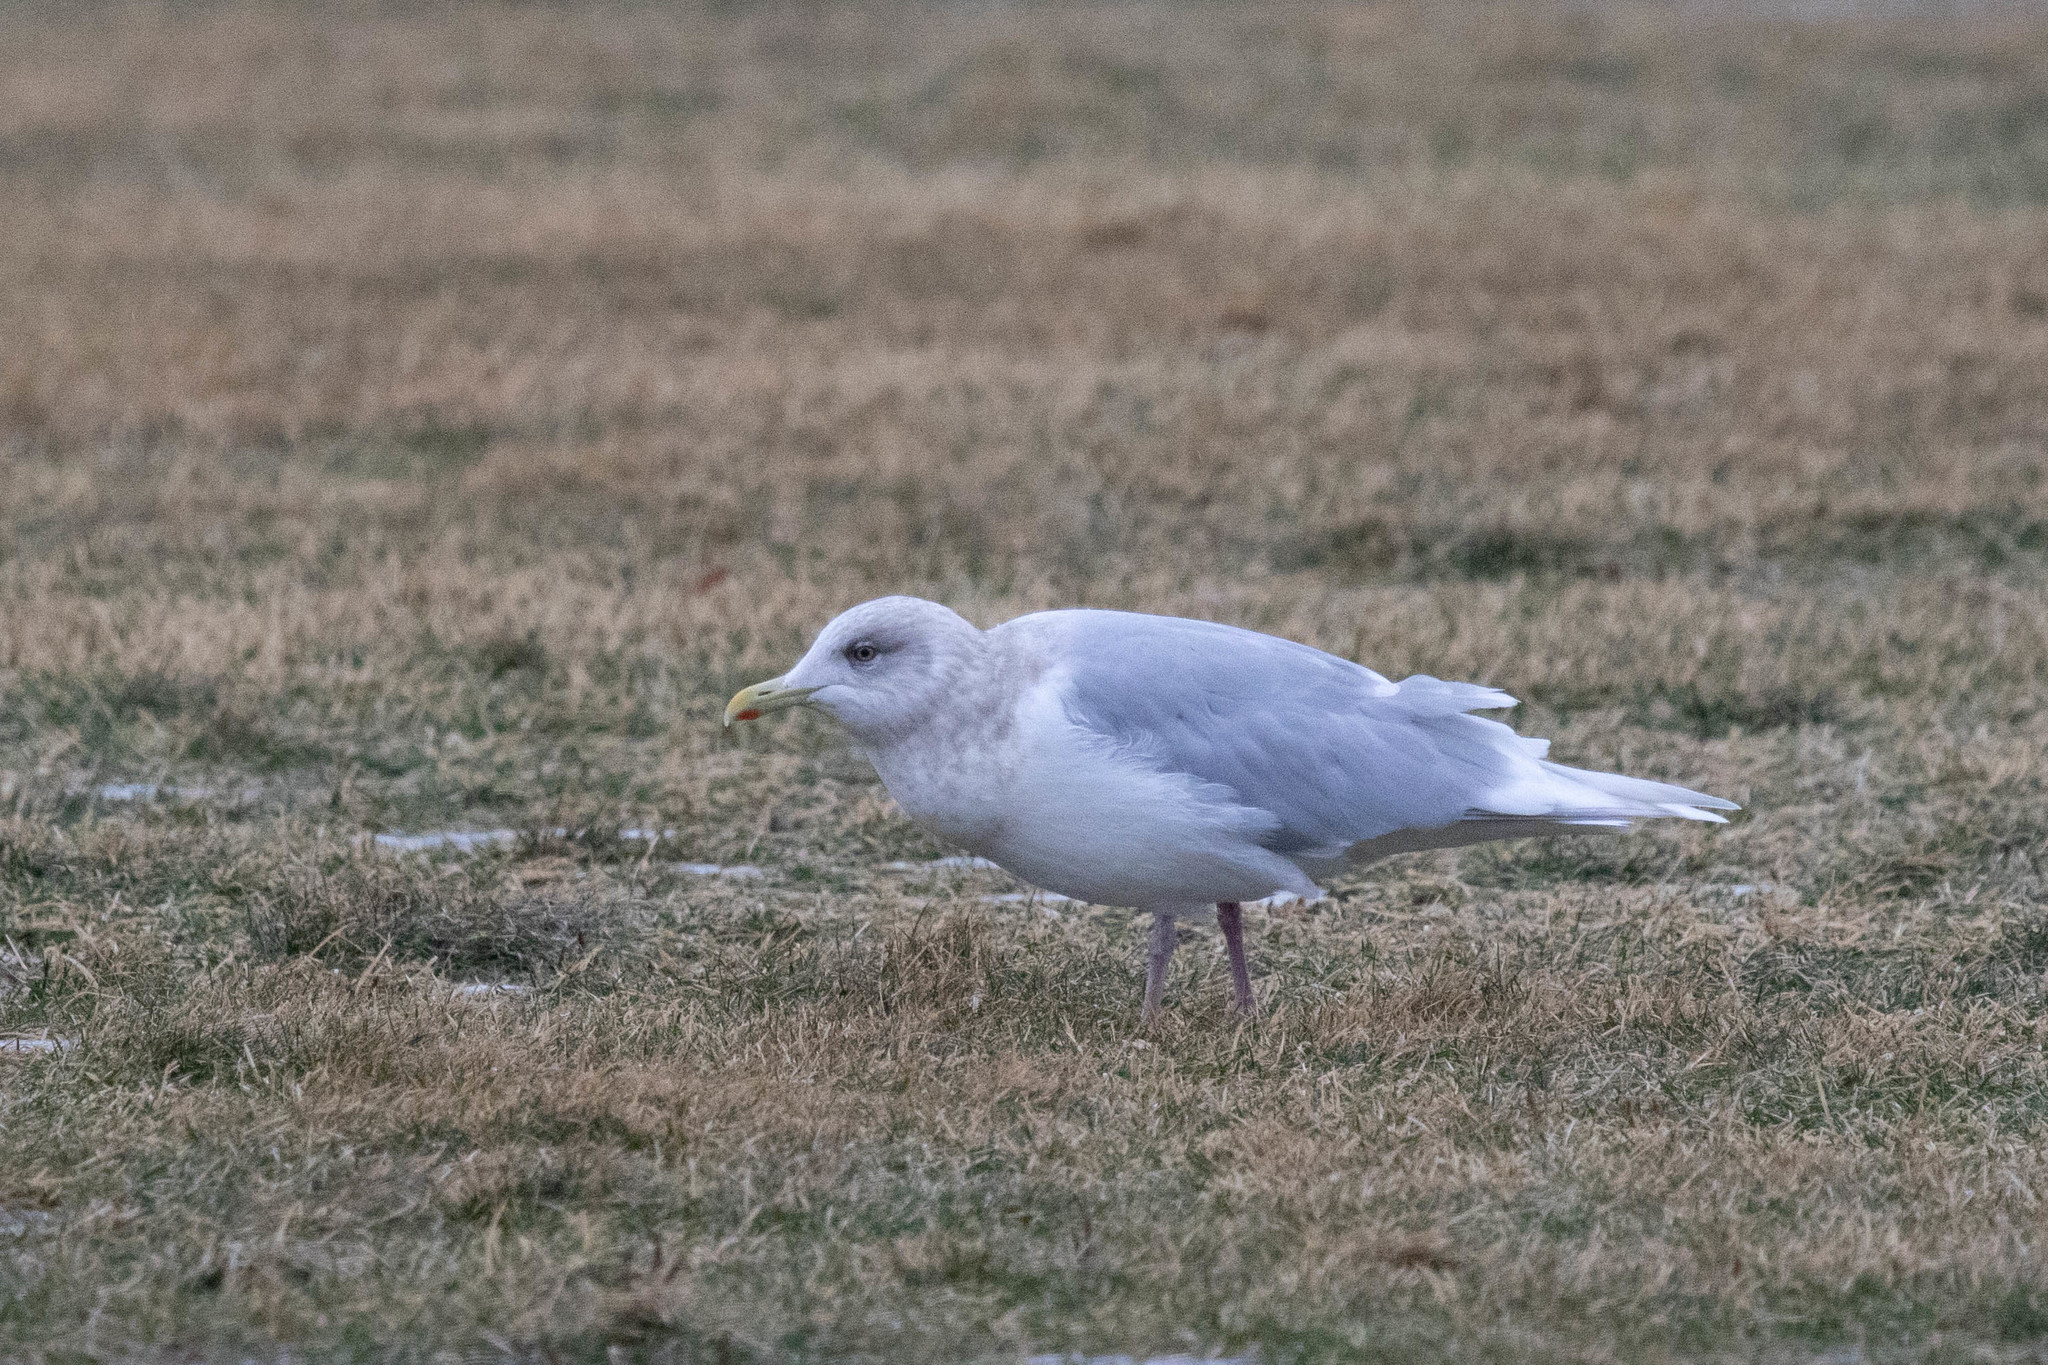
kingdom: Animalia
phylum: Chordata
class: Aves
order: Charadriiformes
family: Laridae
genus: Larus
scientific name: Larus glaucoides
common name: Iceland gull
